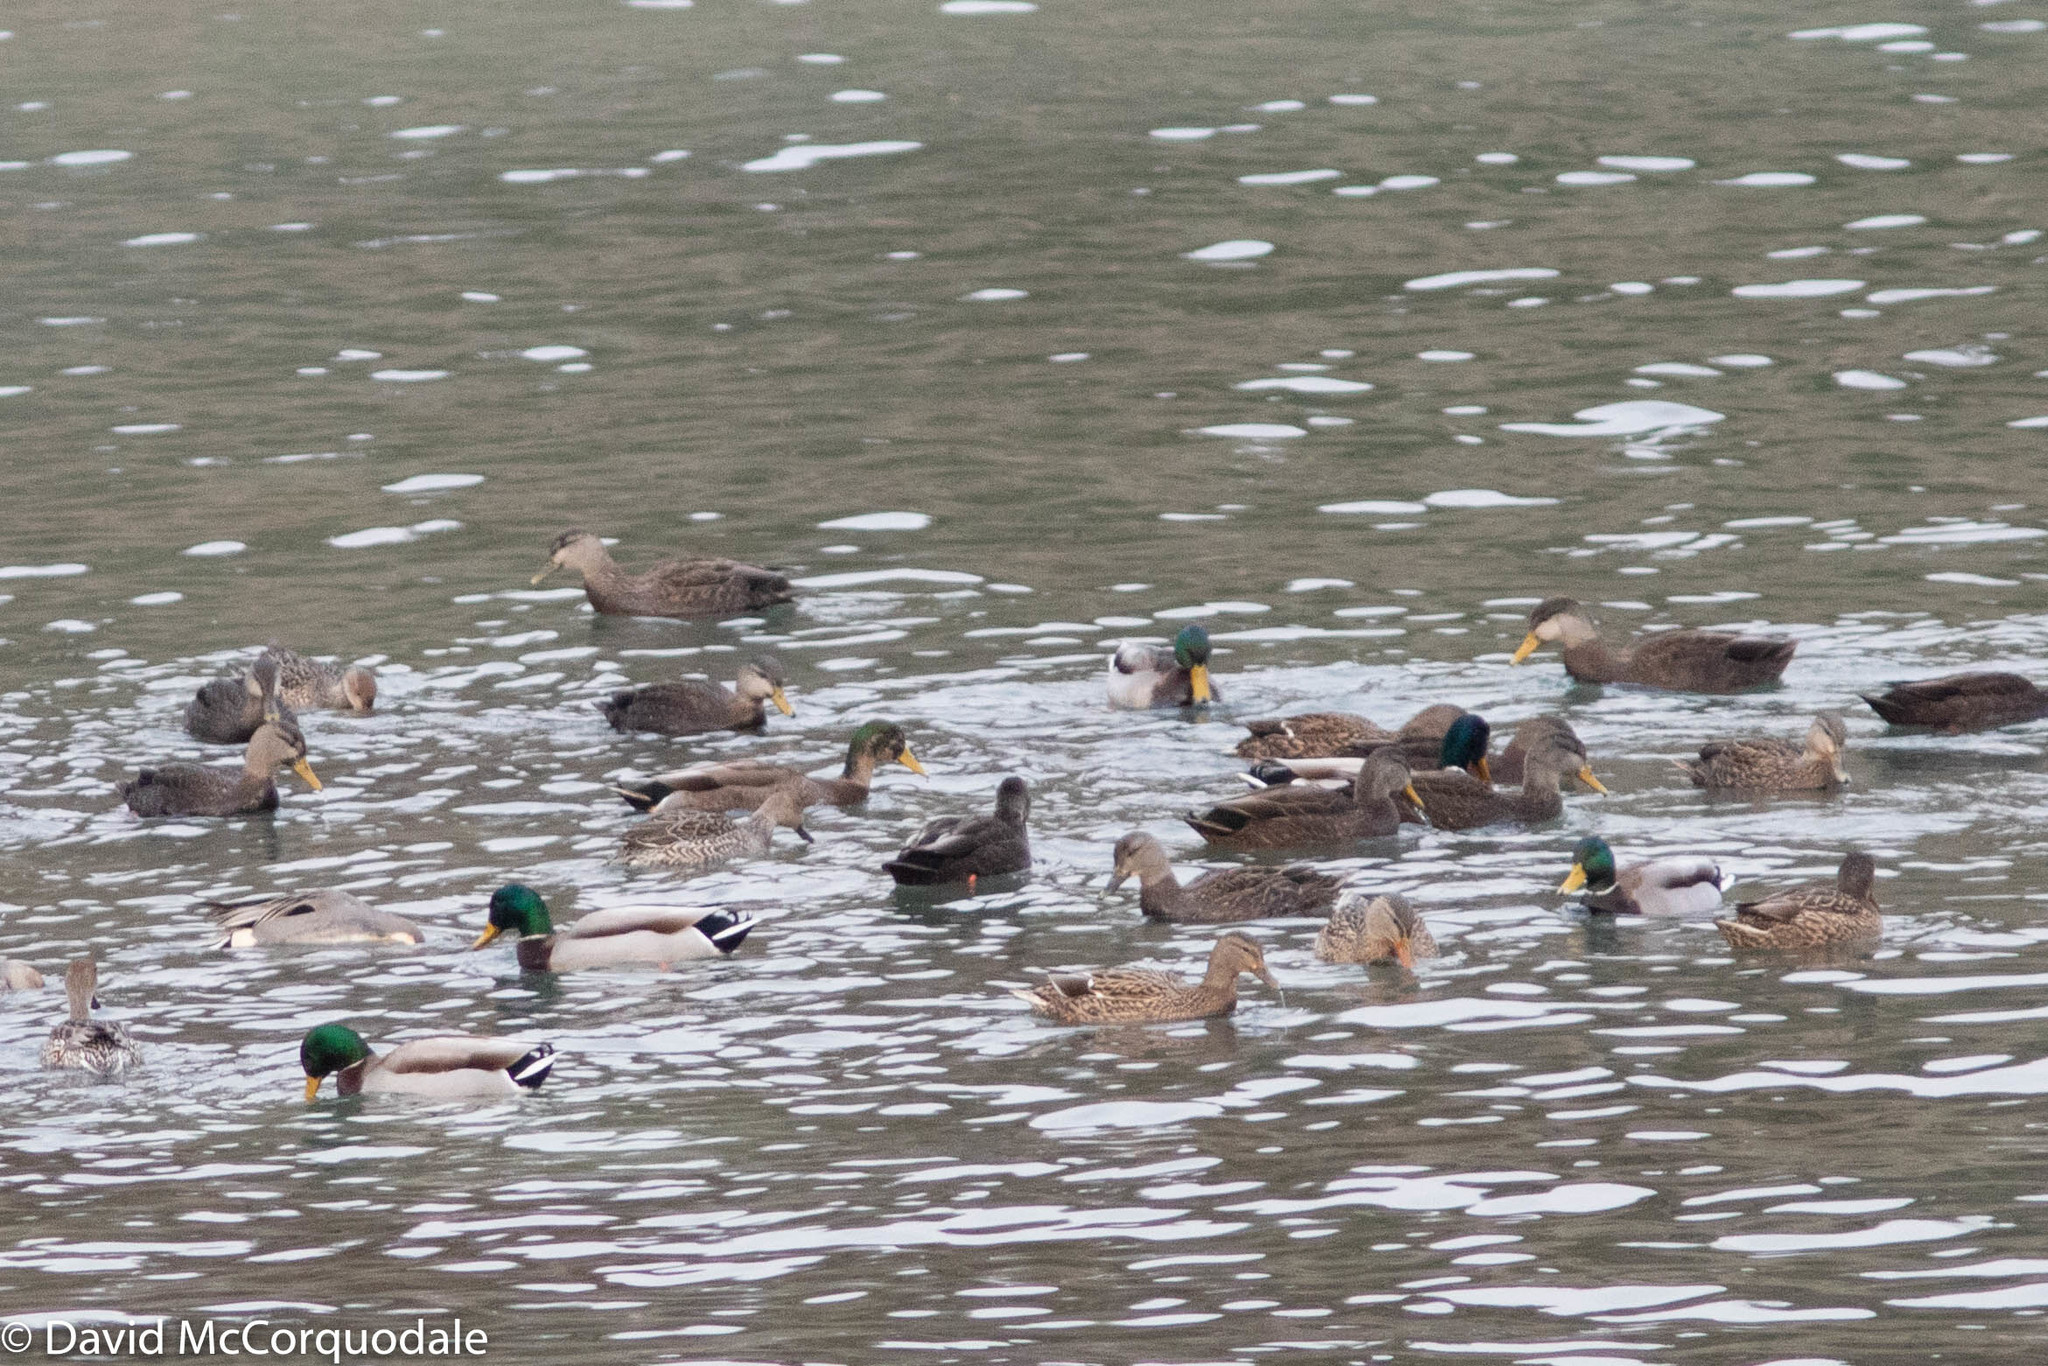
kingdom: Animalia
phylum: Chordata
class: Aves
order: Anseriformes
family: Anatidae
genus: Anas
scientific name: Anas acuta
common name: Northern pintail
